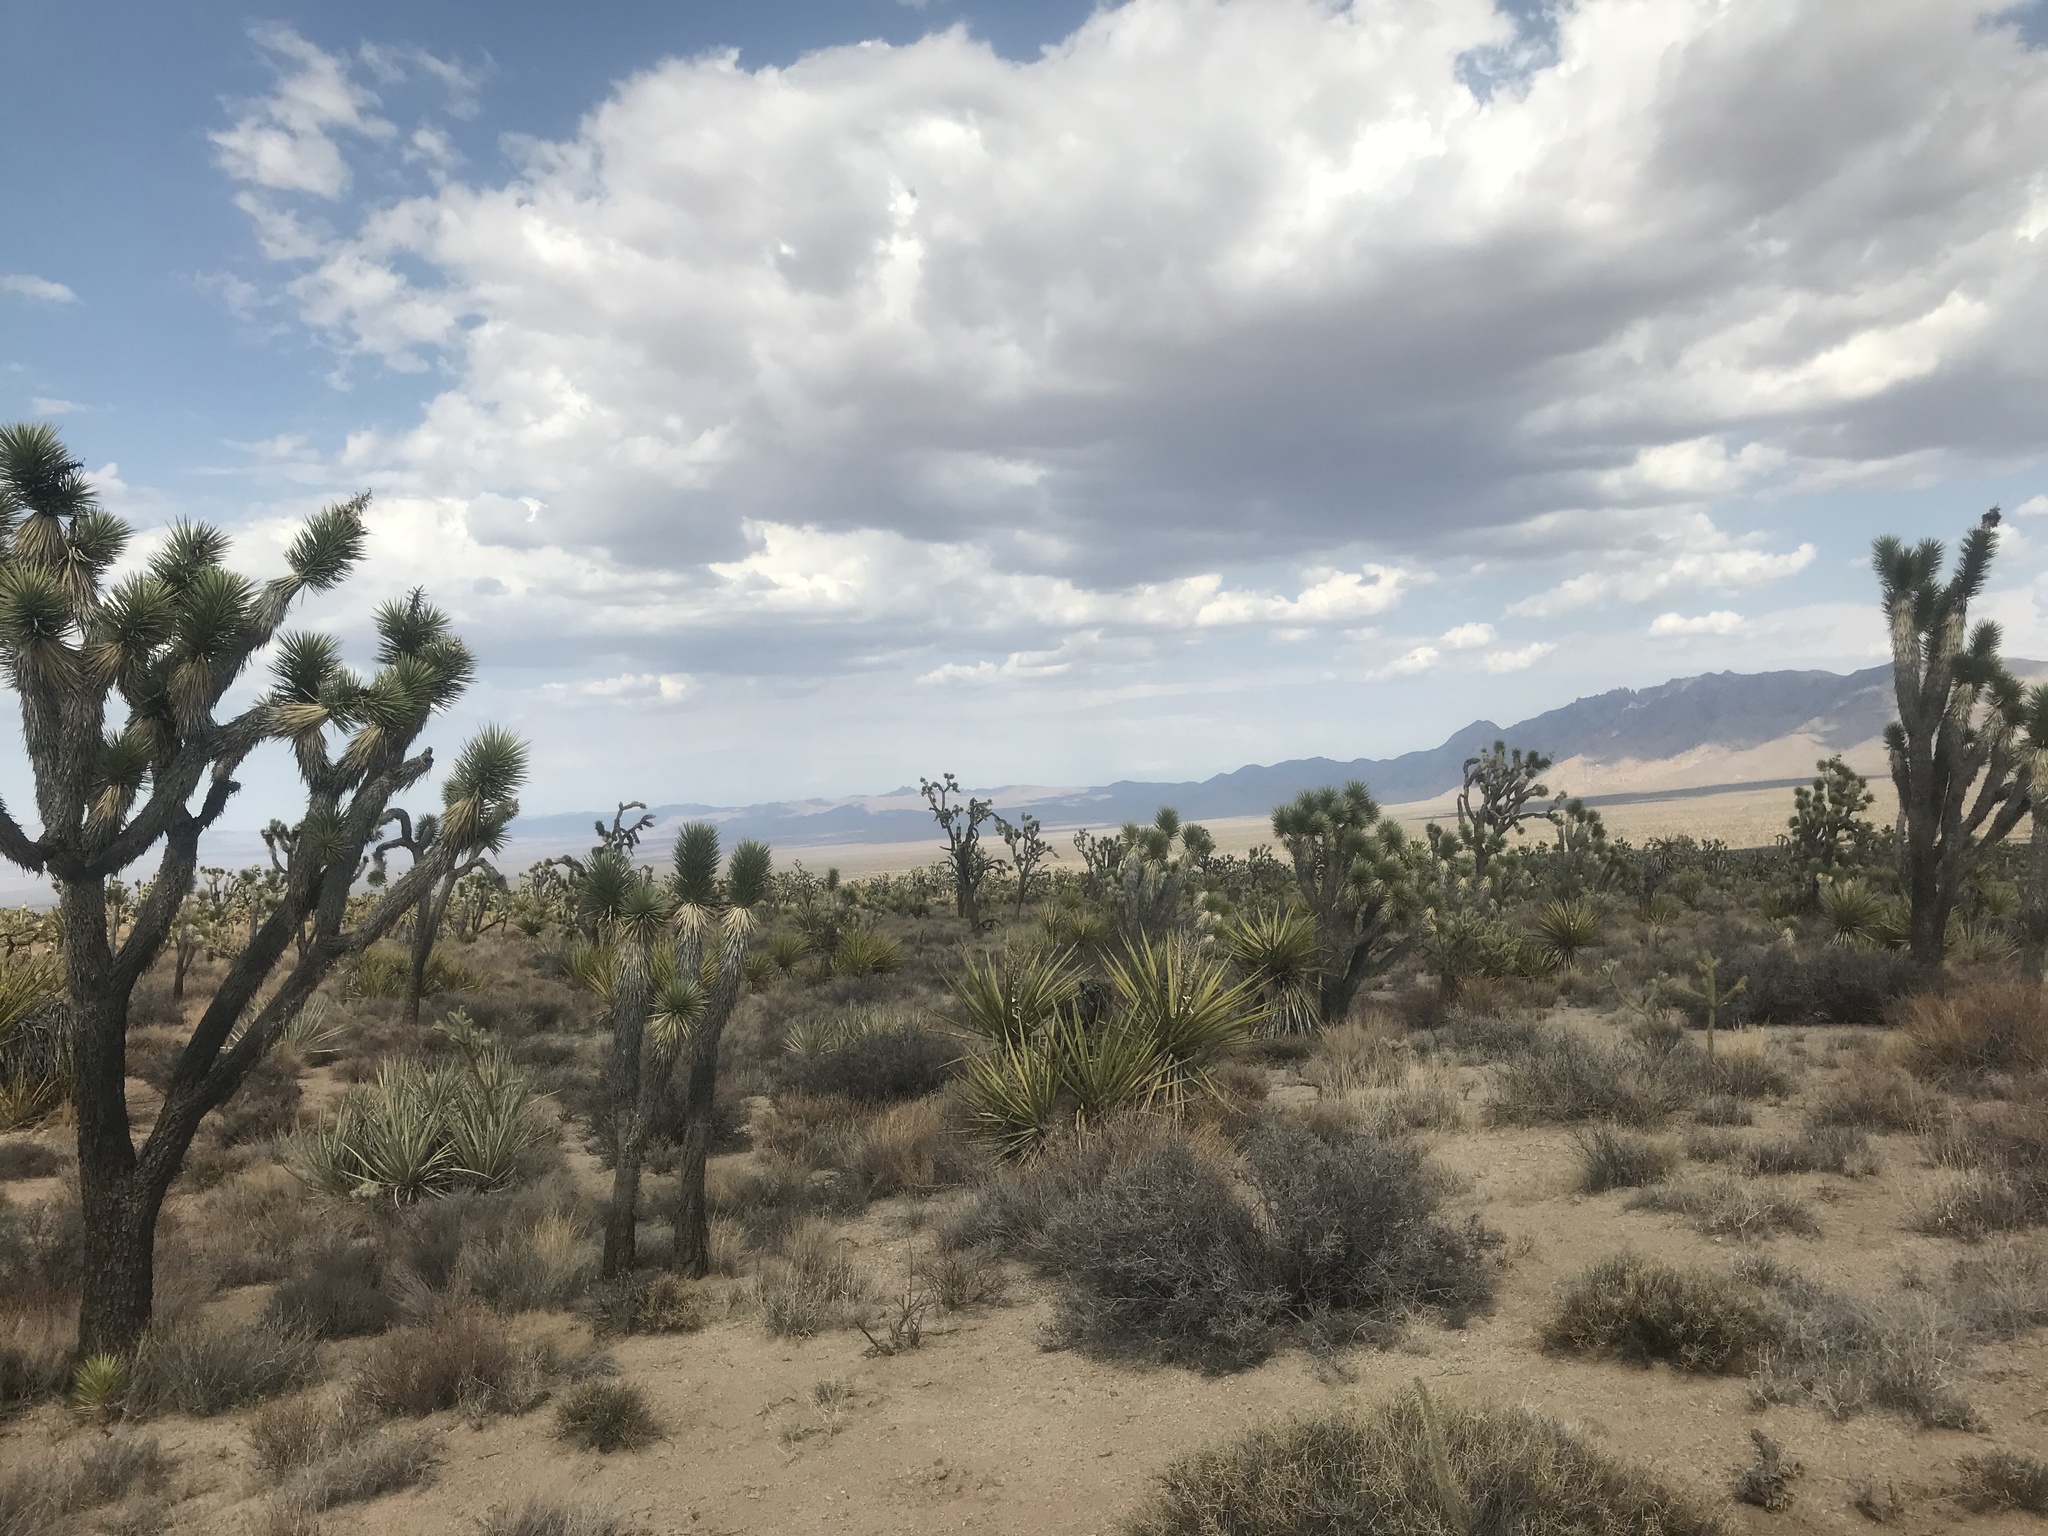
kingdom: Plantae
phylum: Tracheophyta
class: Liliopsida
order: Asparagales
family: Asparagaceae
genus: Yucca
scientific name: Yucca brevifolia
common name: Joshua tree
